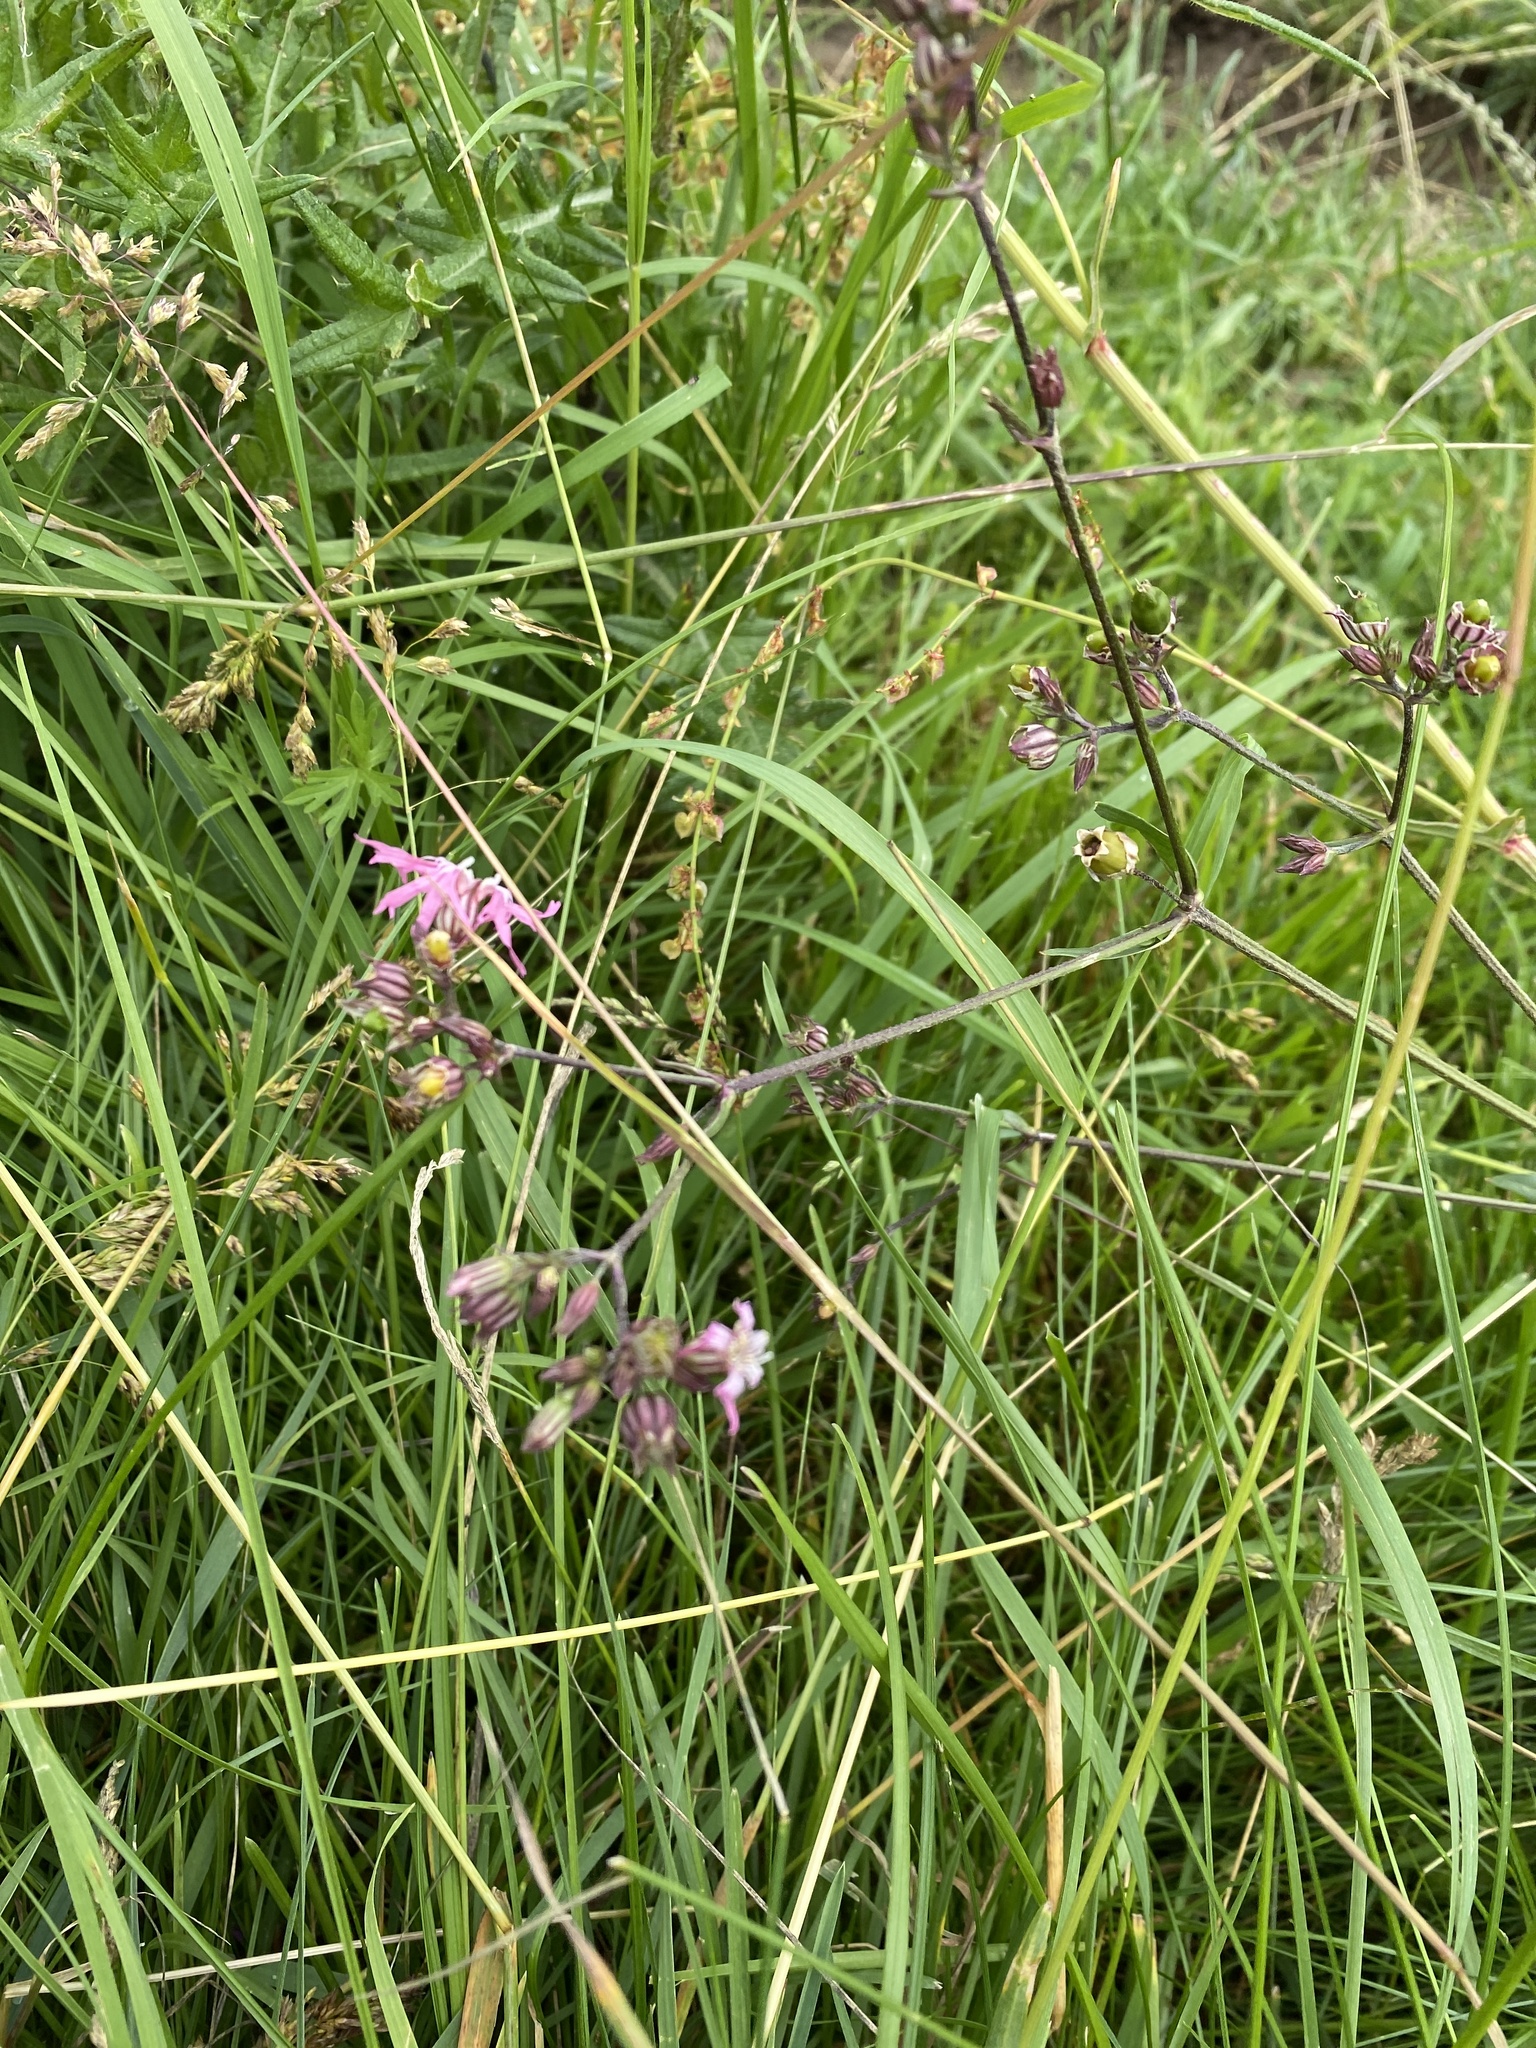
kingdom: Plantae
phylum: Tracheophyta
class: Magnoliopsida
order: Caryophyllales
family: Caryophyllaceae
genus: Silene
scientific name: Silene flos-cuculi
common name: Ragged-robin
